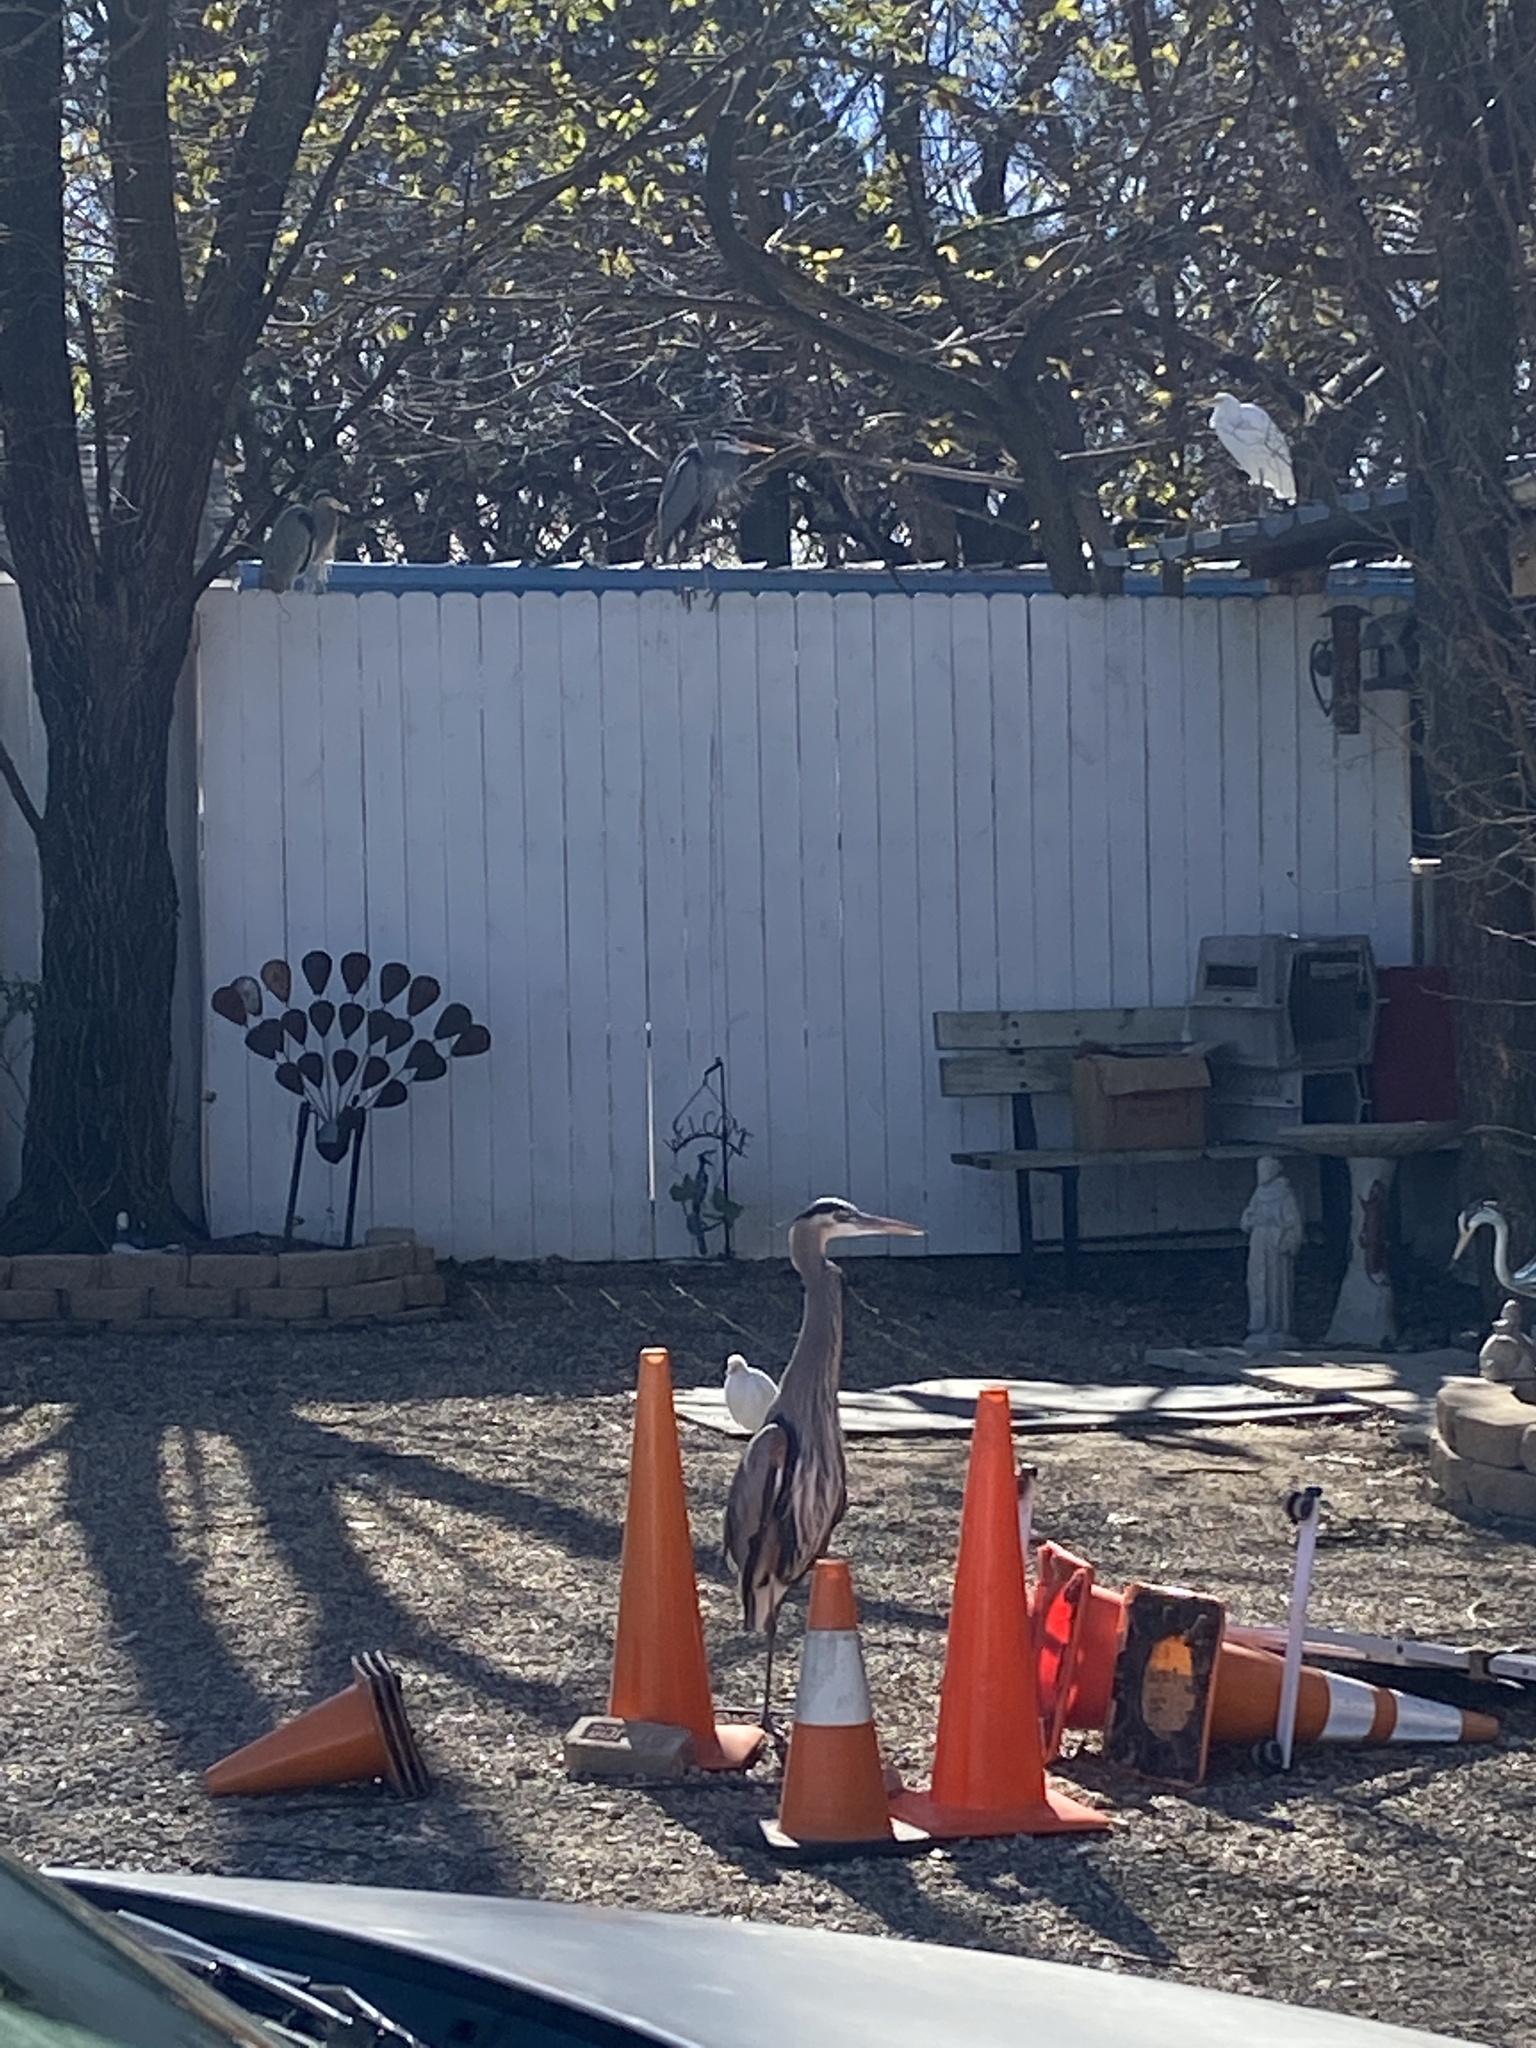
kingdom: Animalia
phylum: Chordata
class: Aves
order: Pelecaniformes
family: Ardeidae
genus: Ardea
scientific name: Ardea herodias
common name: Great blue heron
